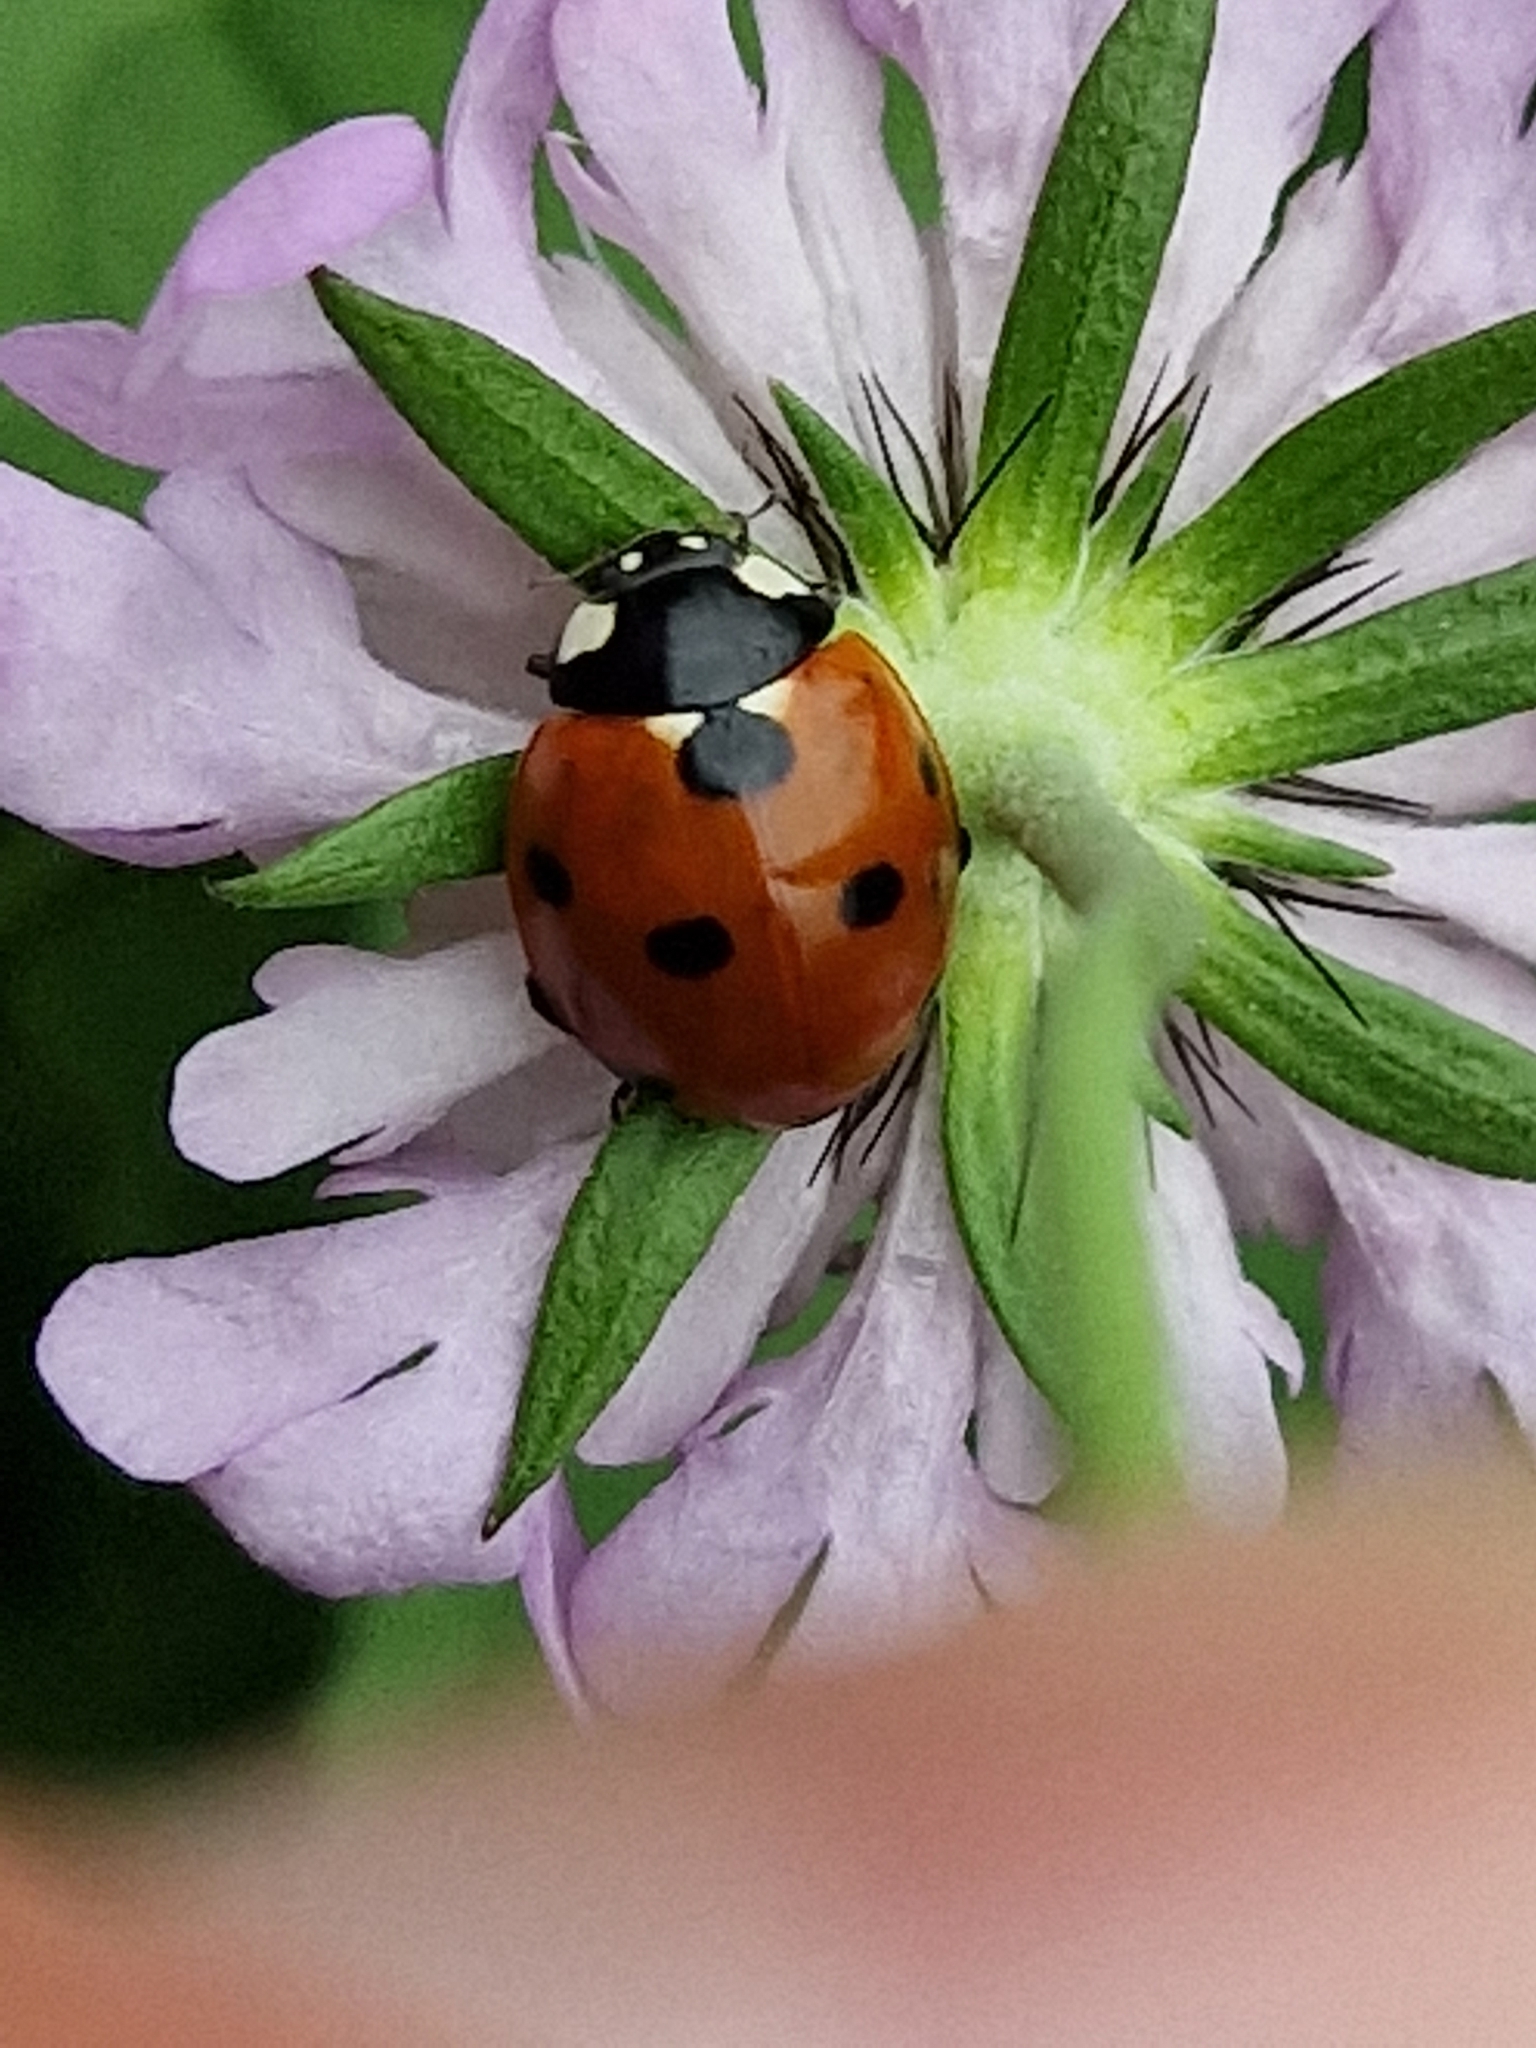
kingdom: Animalia
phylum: Arthropoda
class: Insecta
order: Coleoptera
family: Coccinellidae
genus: Coccinella
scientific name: Coccinella septempunctata
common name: Sevenspotted lady beetle
